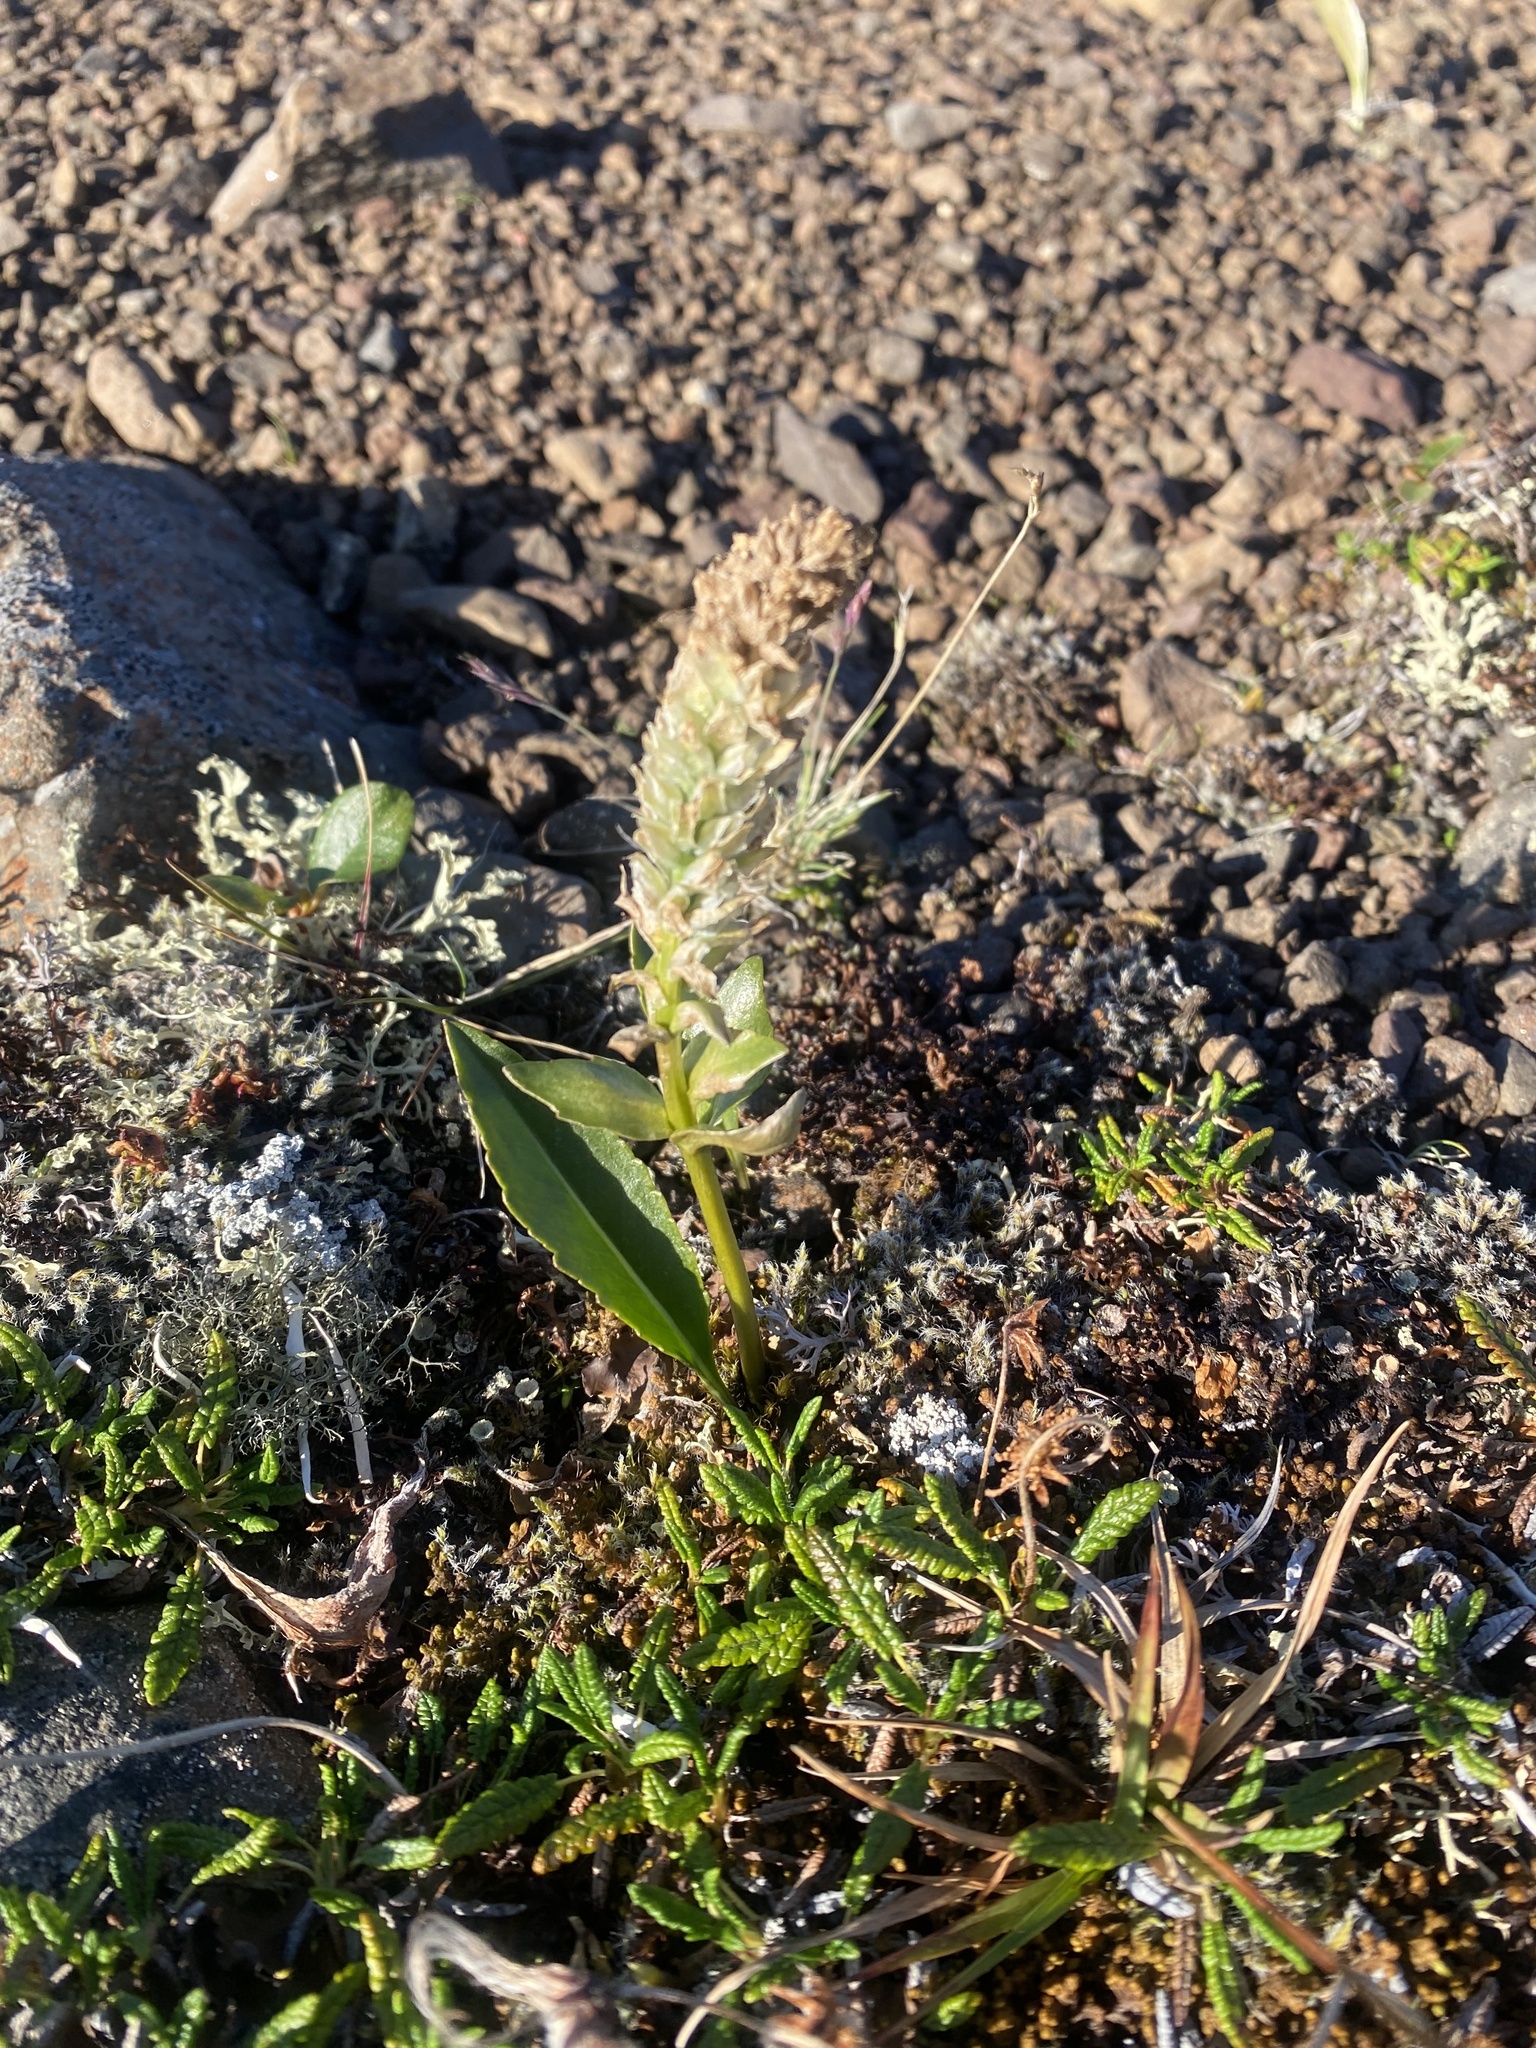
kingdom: Plantae
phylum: Tracheophyta
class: Magnoliopsida
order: Lamiales
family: Plantaginaceae
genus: Lagotis
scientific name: Lagotis glauca
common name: Glaucous weaselsnout
